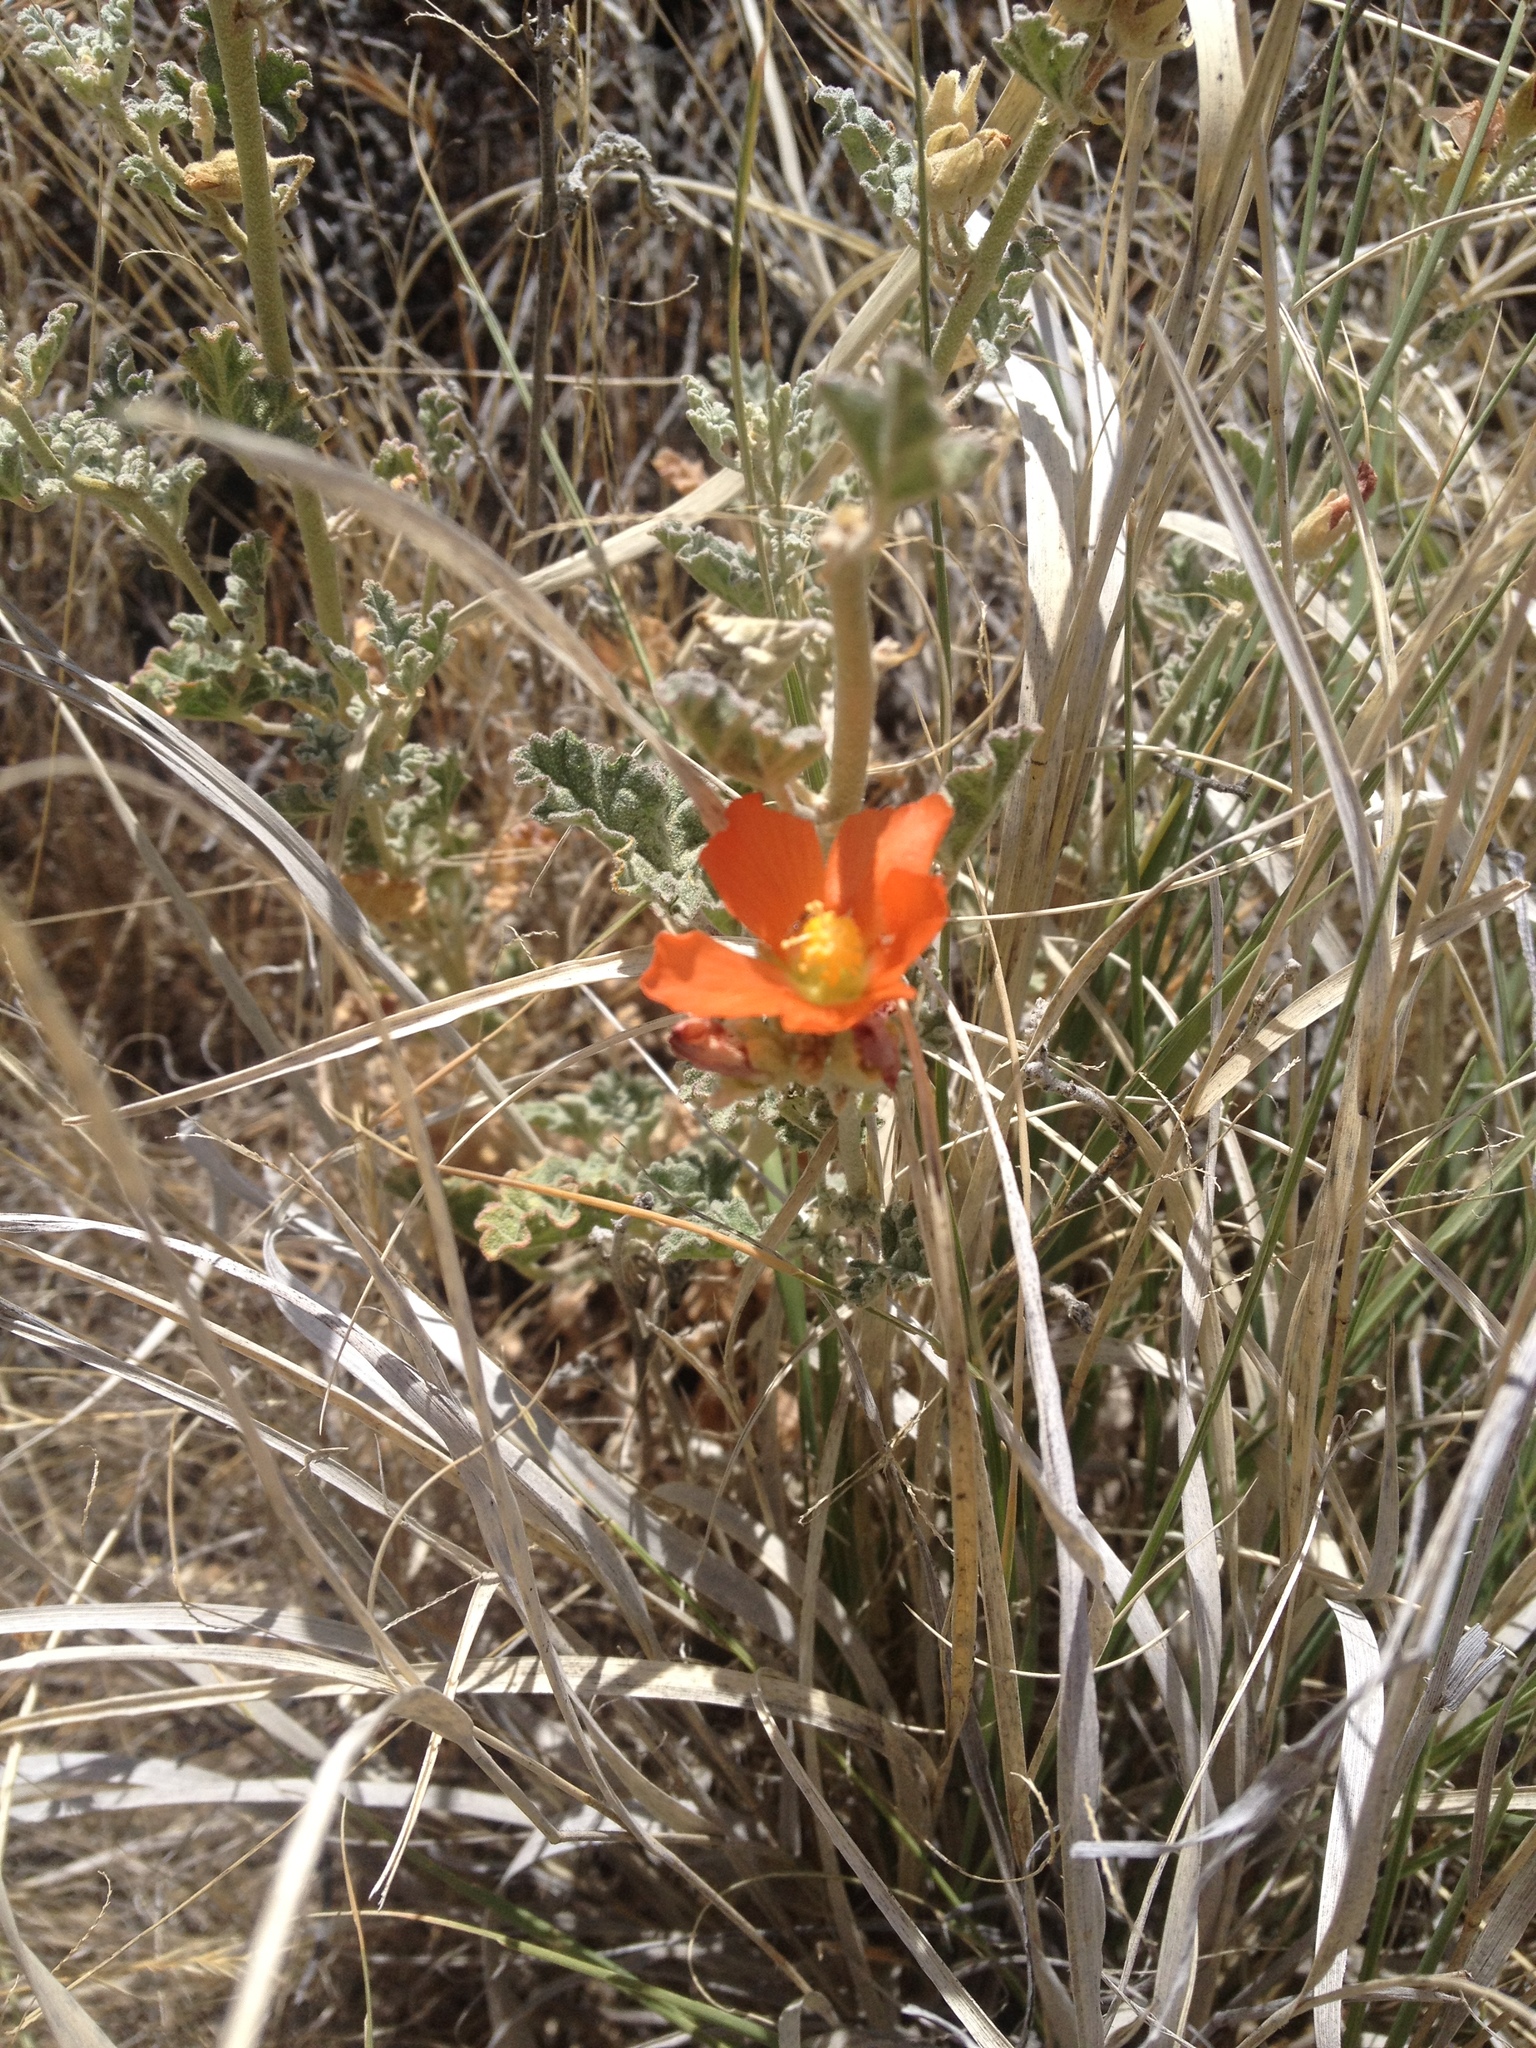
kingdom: Plantae
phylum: Tracheophyta
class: Magnoliopsida
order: Malvales
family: Malvaceae
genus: Sphaeralcea
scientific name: Sphaeralcea ambigua
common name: Apricot globe-mallow
